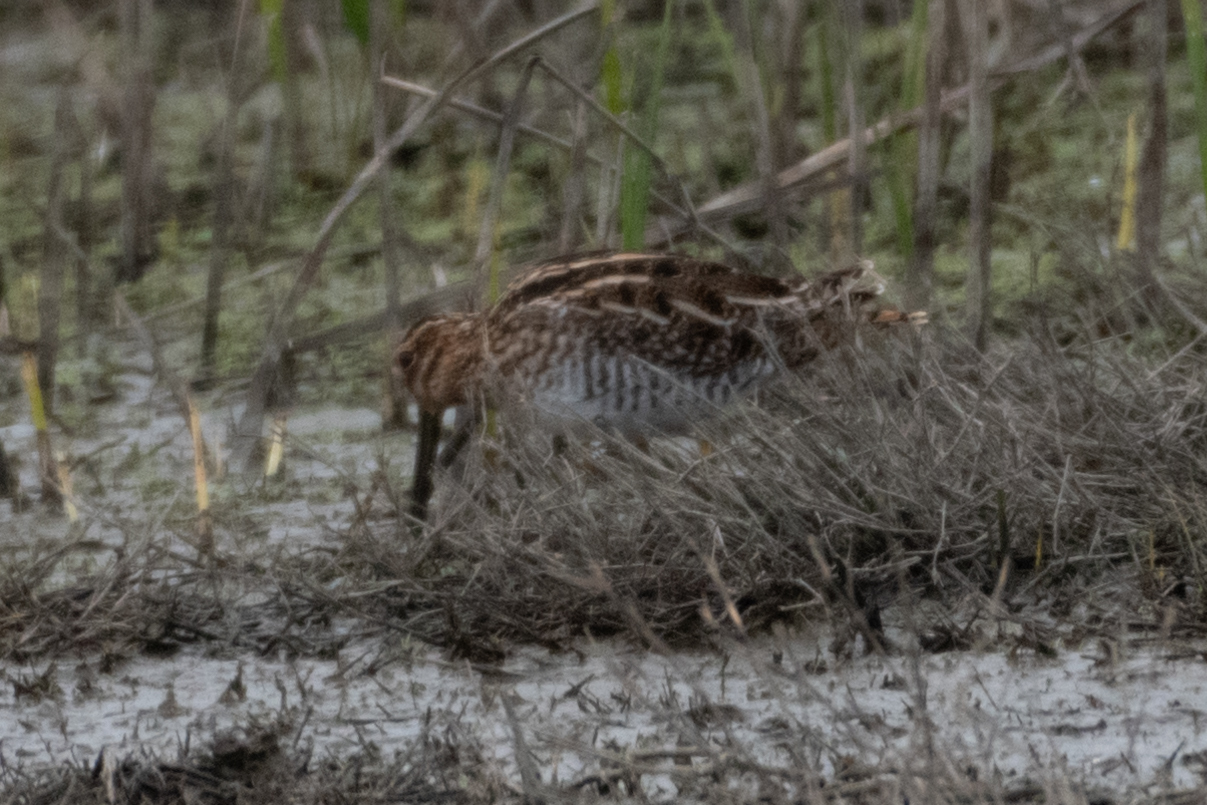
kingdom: Animalia
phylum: Chordata
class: Aves
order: Charadriiformes
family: Scolopacidae
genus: Gallinago
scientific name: Gallinago delicata
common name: Wilson's snipe
